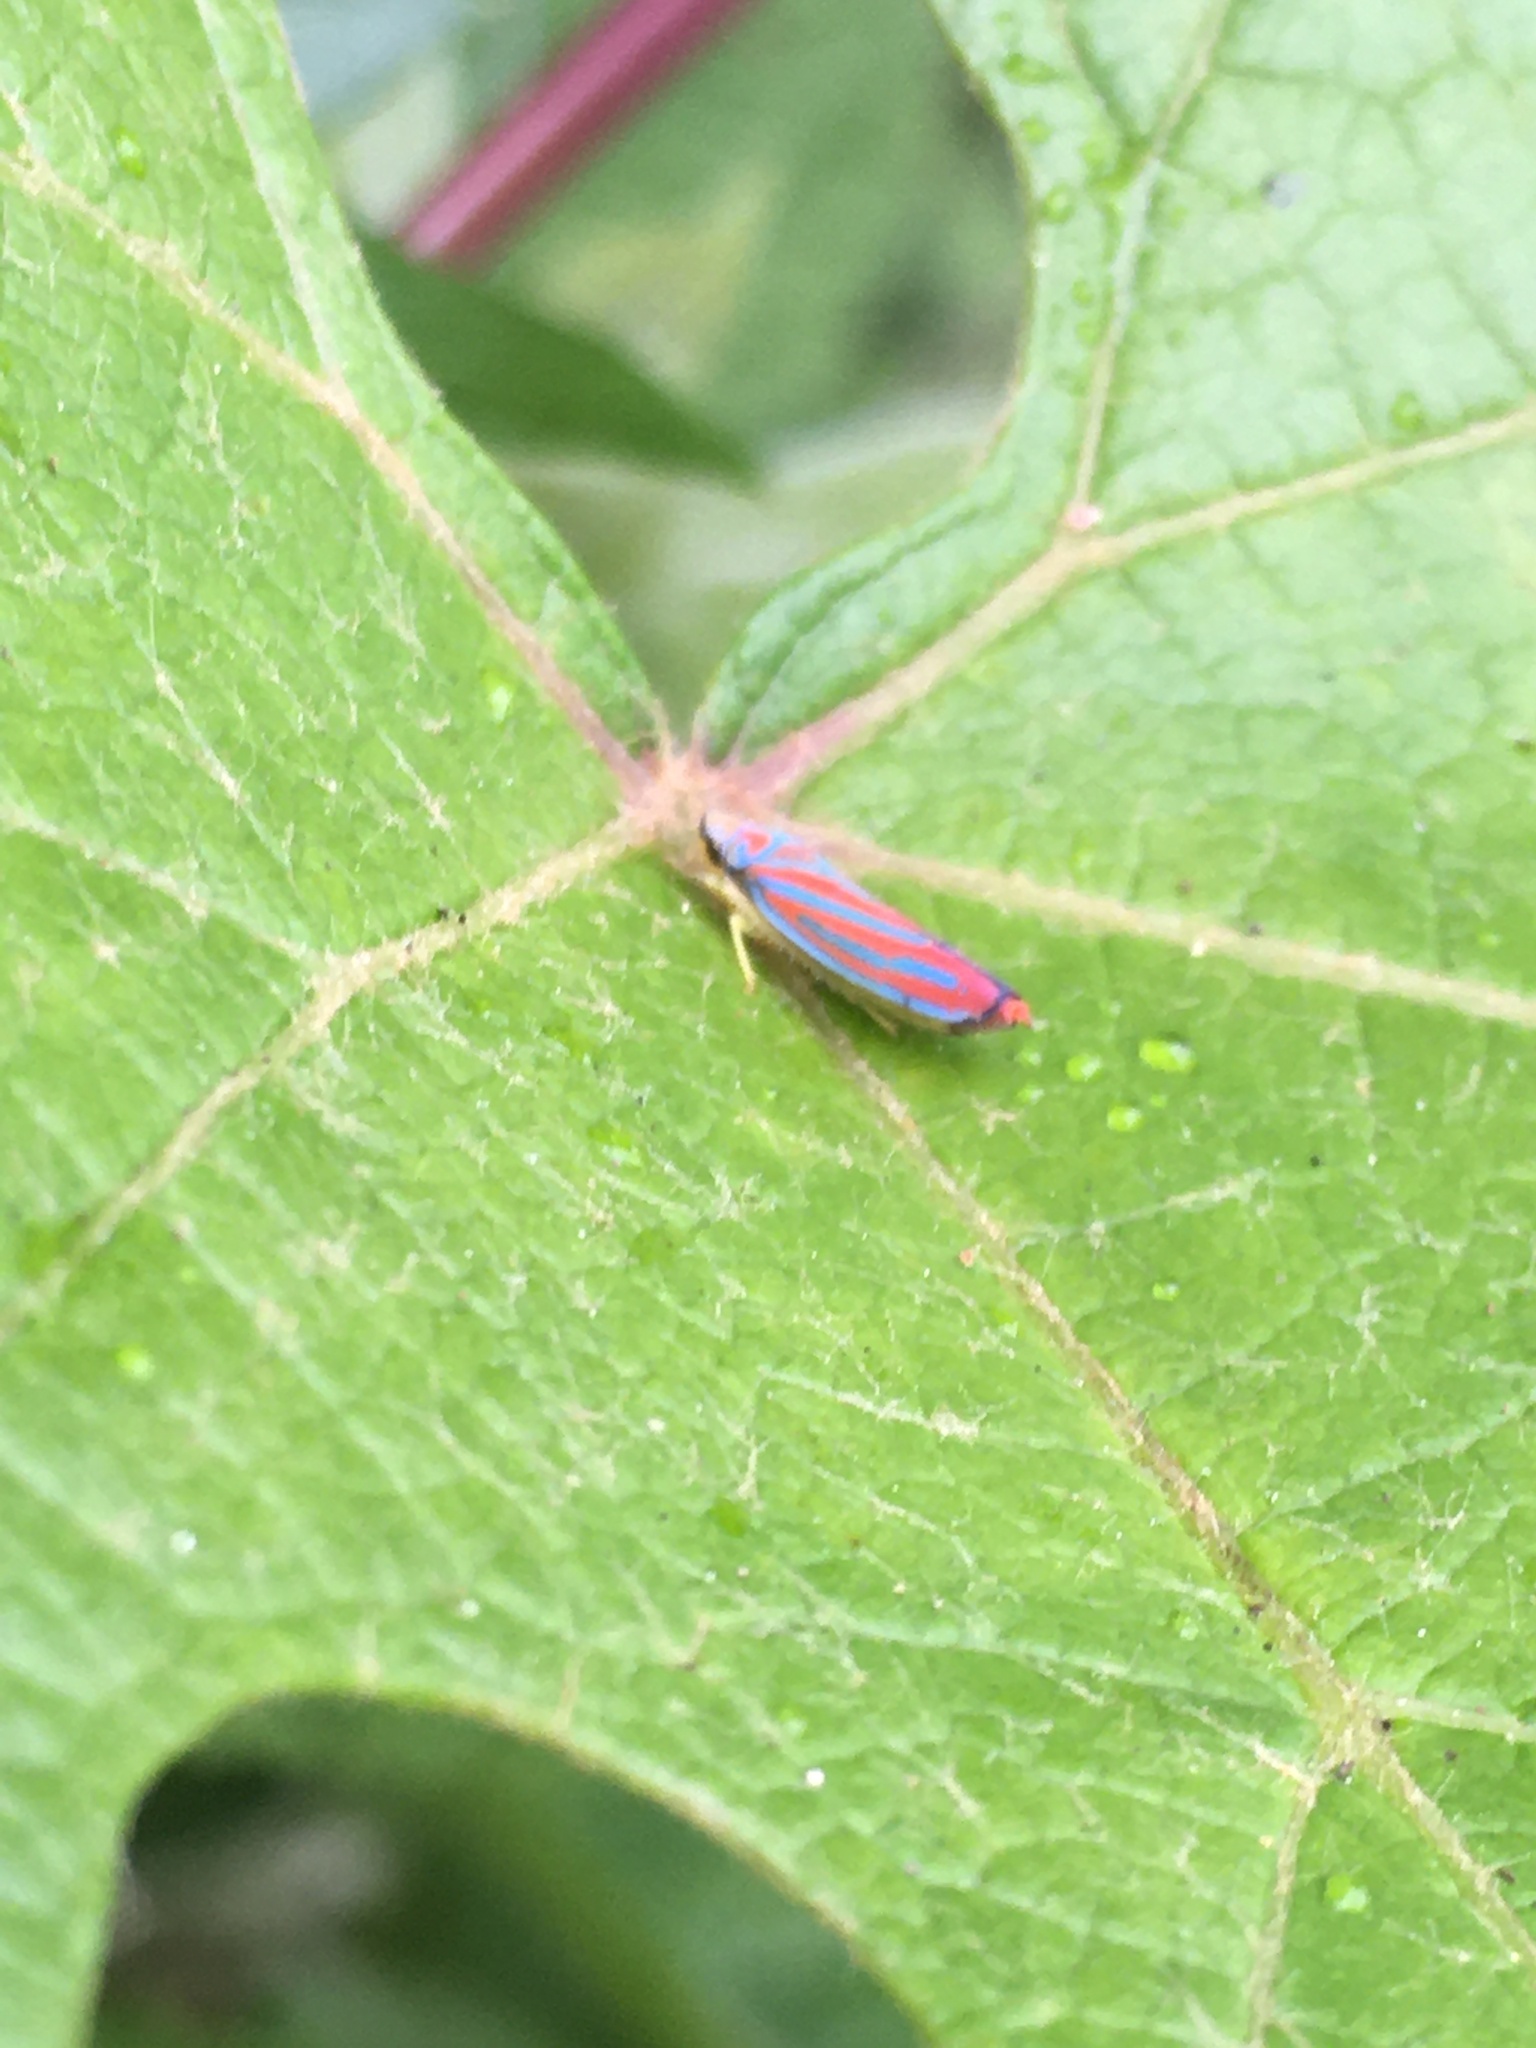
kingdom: Animalia
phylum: Arthropoda
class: Insecta
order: Hemiptera
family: Cicadellidae
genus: Graphocephala
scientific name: Graphocephala coccinea
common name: Candy-striped leafhopper
